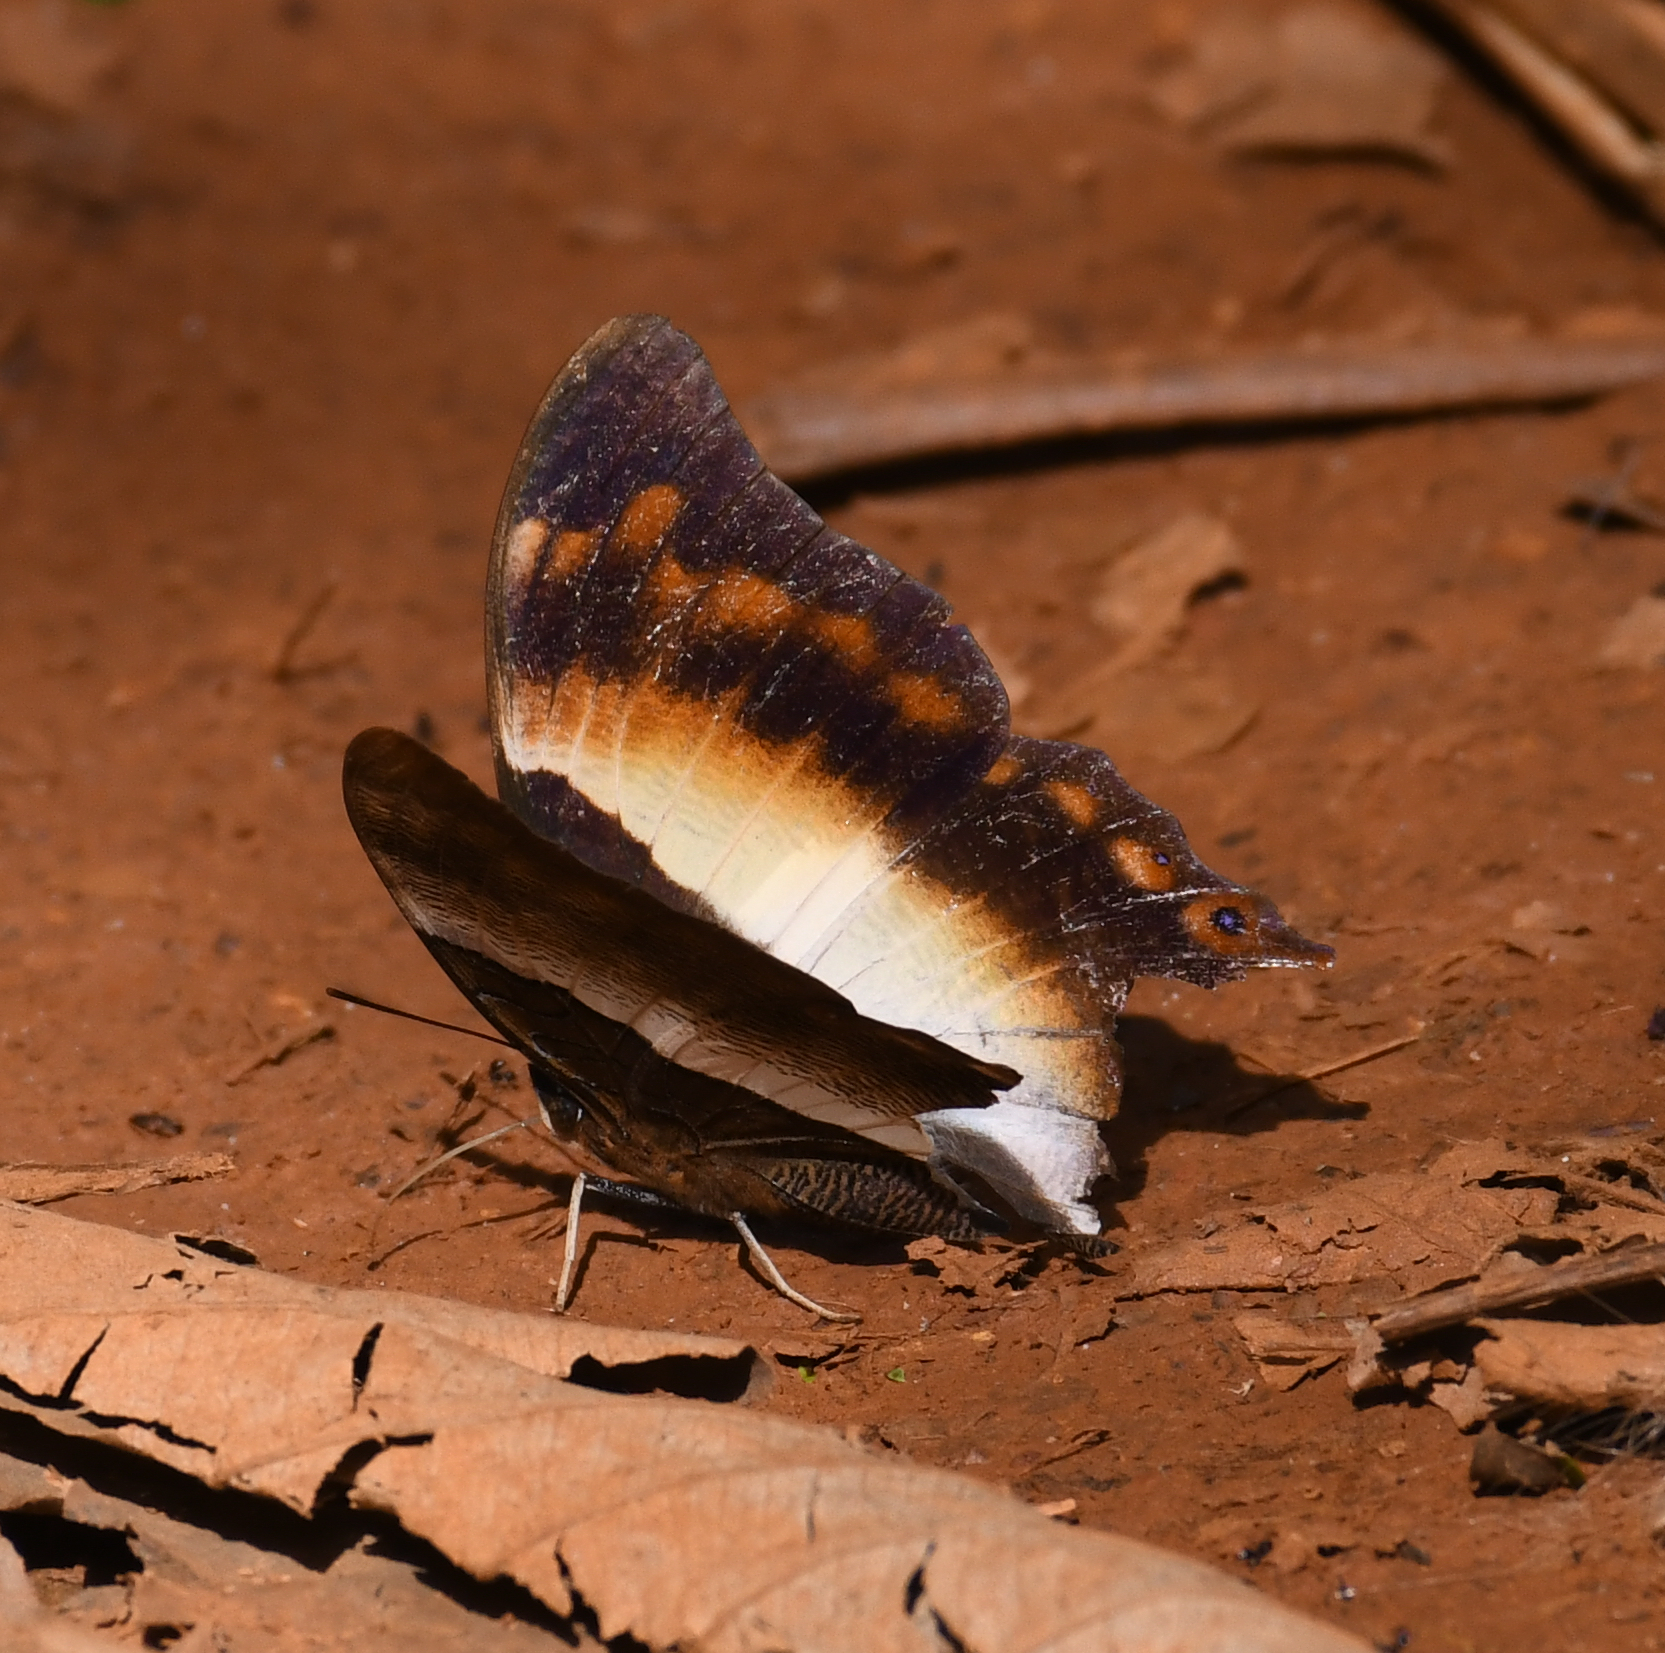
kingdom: Animalia
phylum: Arthropoda
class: Insecta
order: Lepidoptera
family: Nymphalidae
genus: Palla
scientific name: Palla ussheri
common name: Ussher’s palla
